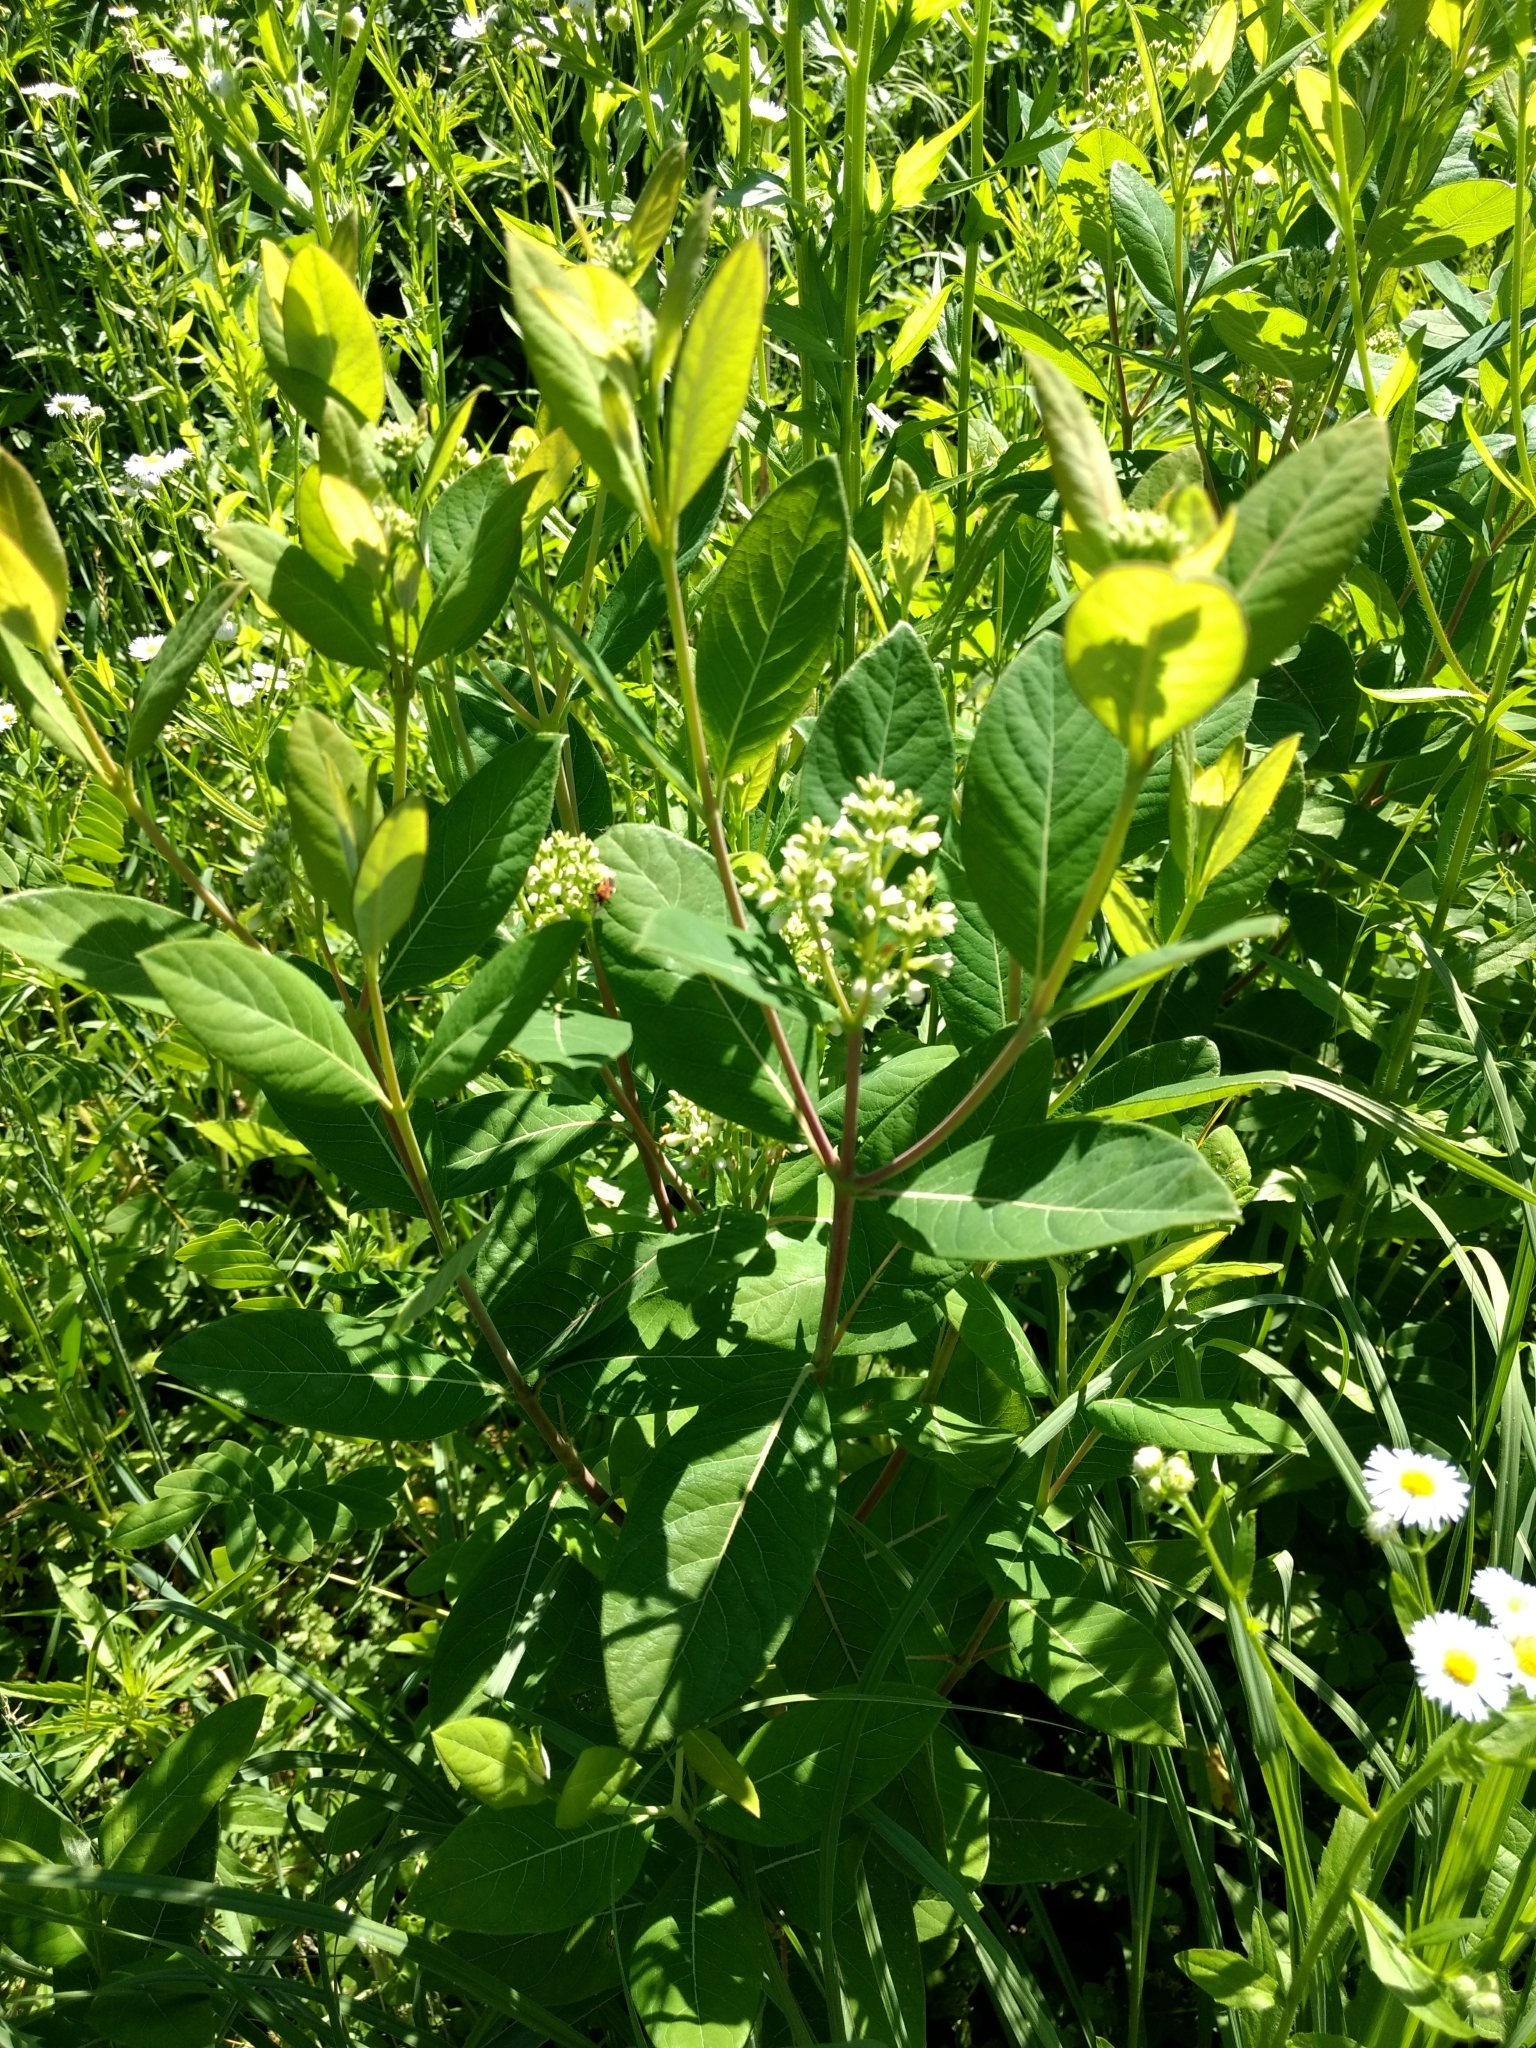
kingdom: Plantae
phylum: Tracheophyta
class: Magnoliopsida
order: Gentianales
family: Apocynaceae
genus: Apocynum
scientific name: Apocynum cannabinum
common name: Hemp dogbane
